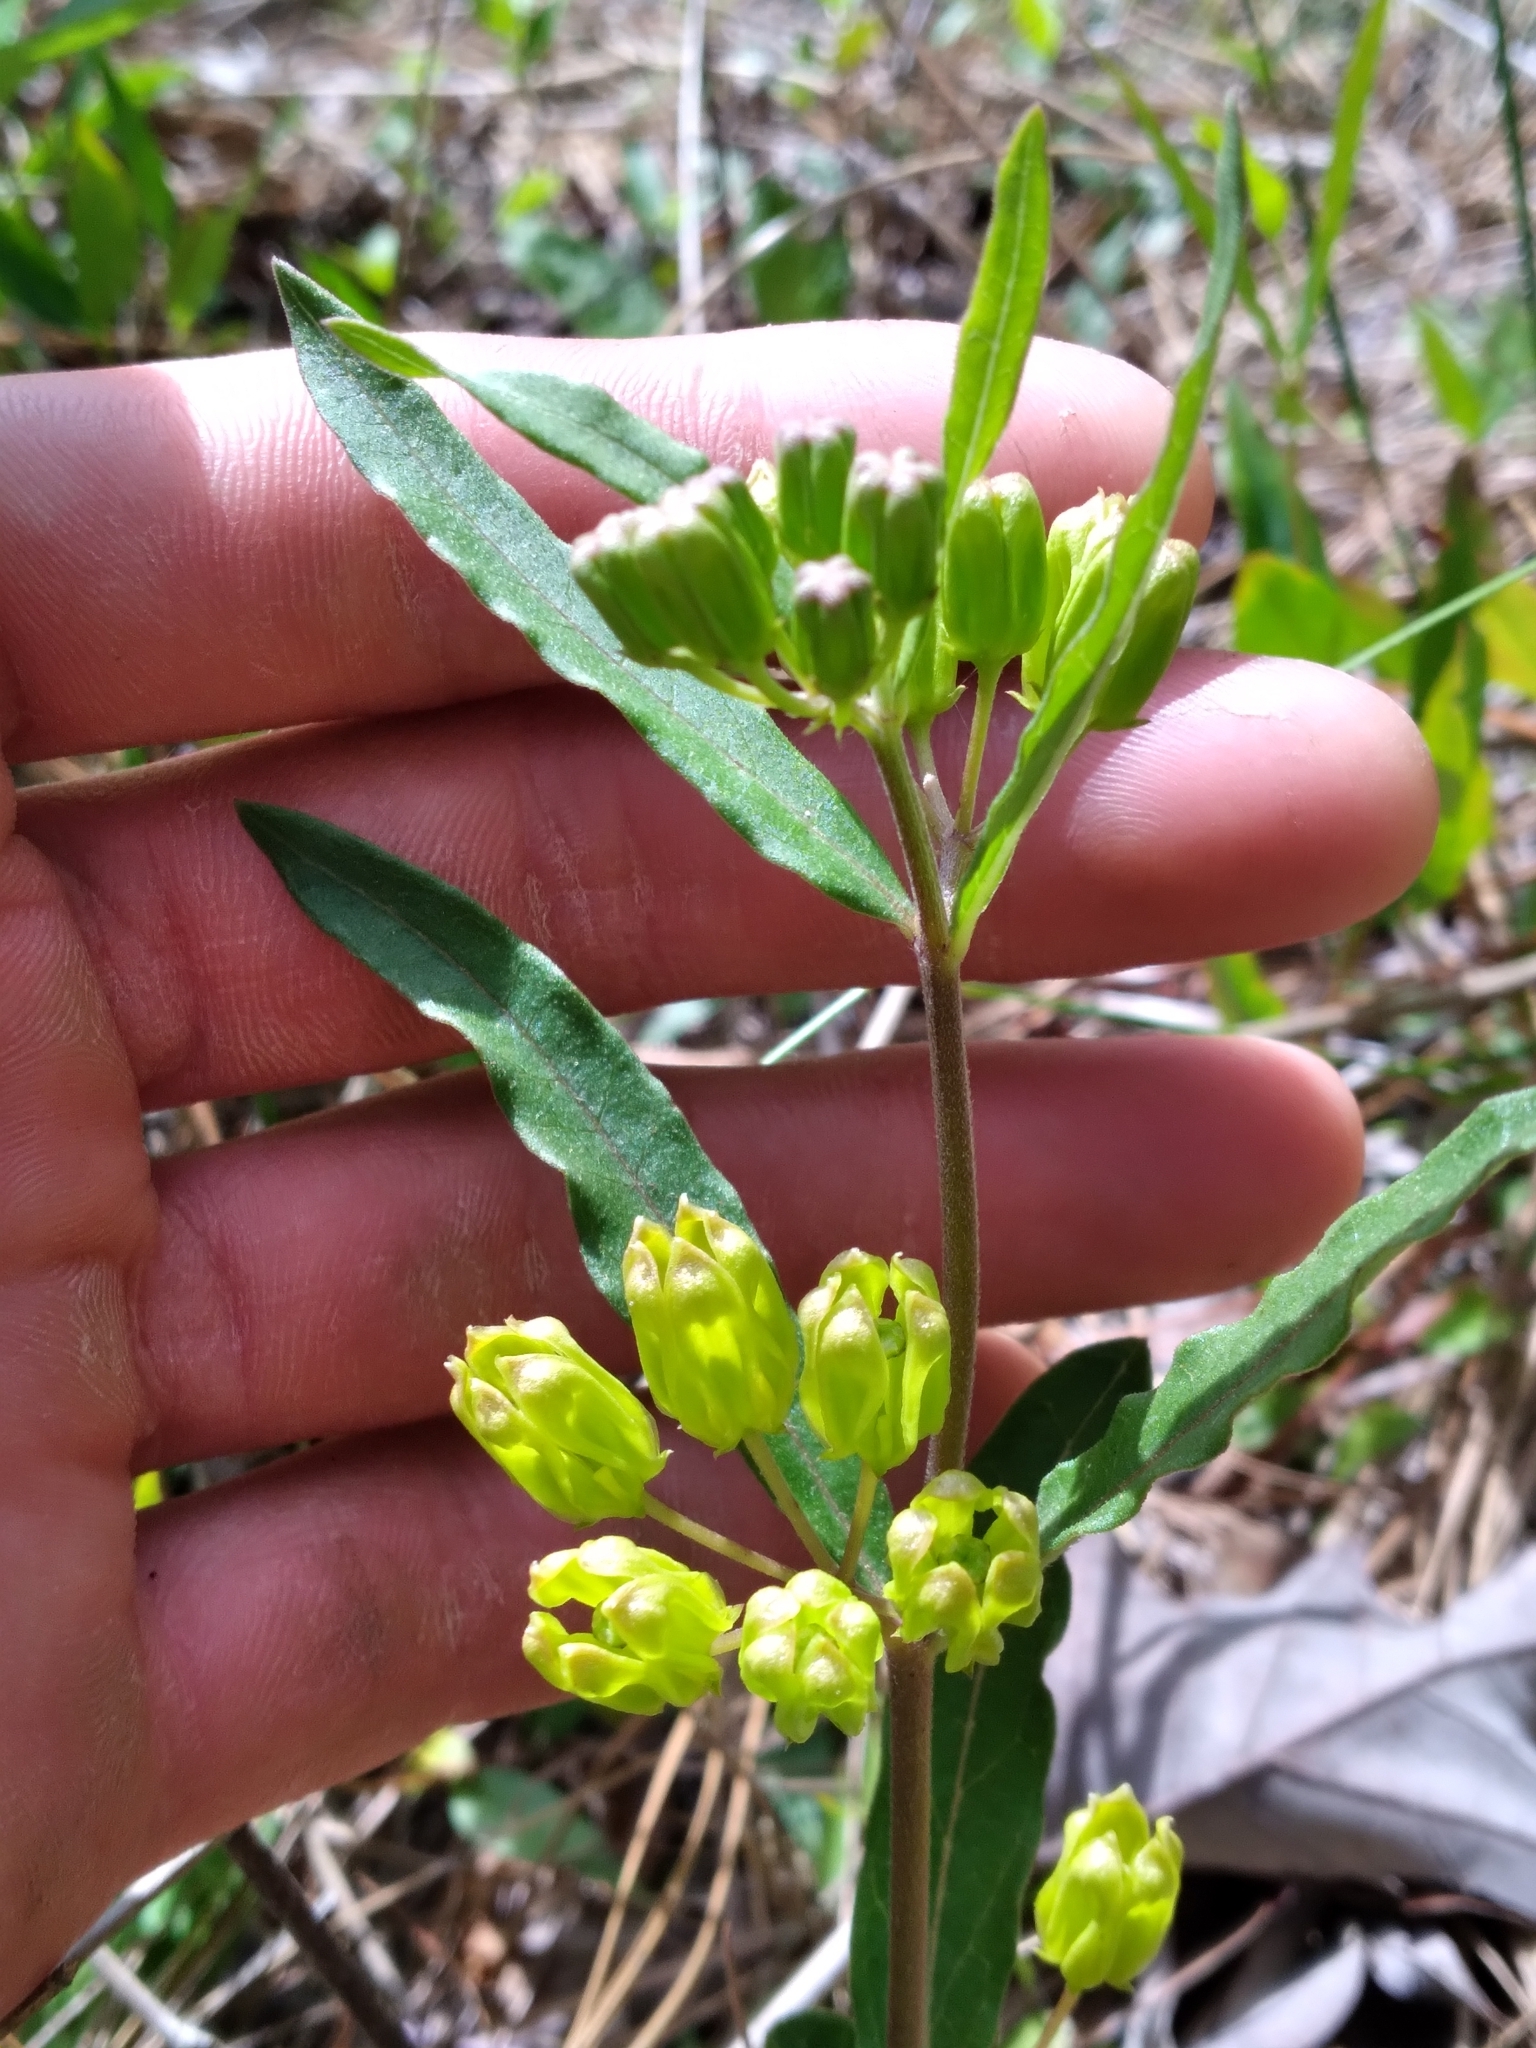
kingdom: Plantae
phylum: Tracheophyta
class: Magnoliopsida
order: Gentianales
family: Apocynaceae
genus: Asclepias
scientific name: Asclepias pedicellata
